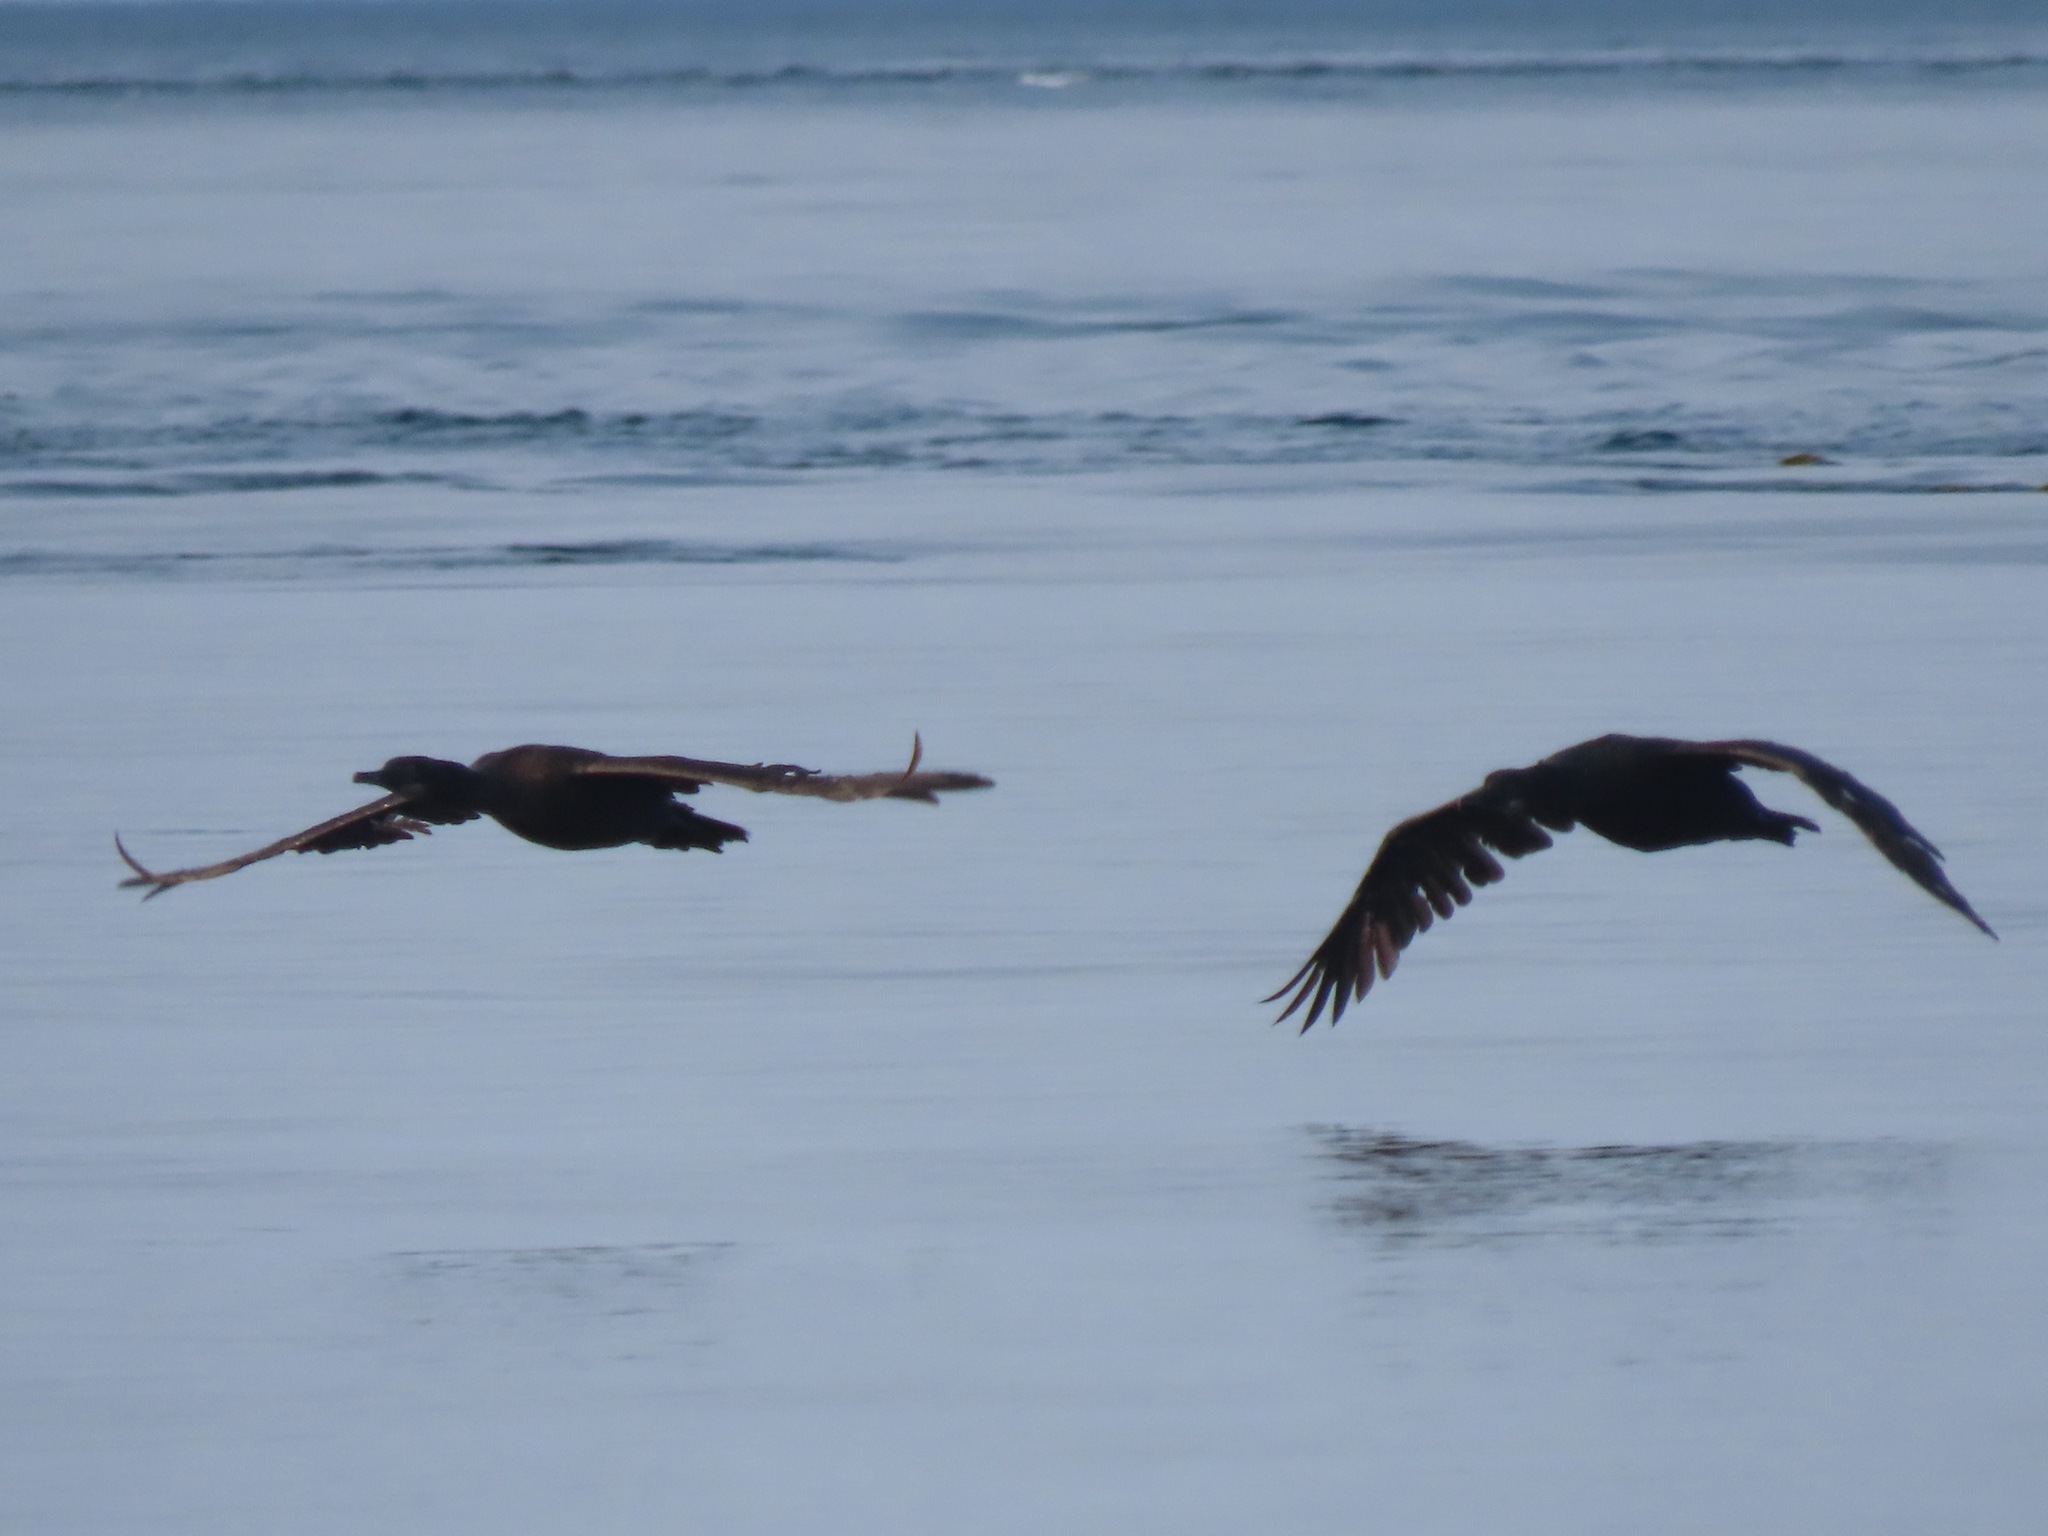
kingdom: Animalia
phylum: Chordata
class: Aves
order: Suliformes
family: Phalacrocoracidae
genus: Urile
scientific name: Urile penicillatus
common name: Brandt's cormorant
